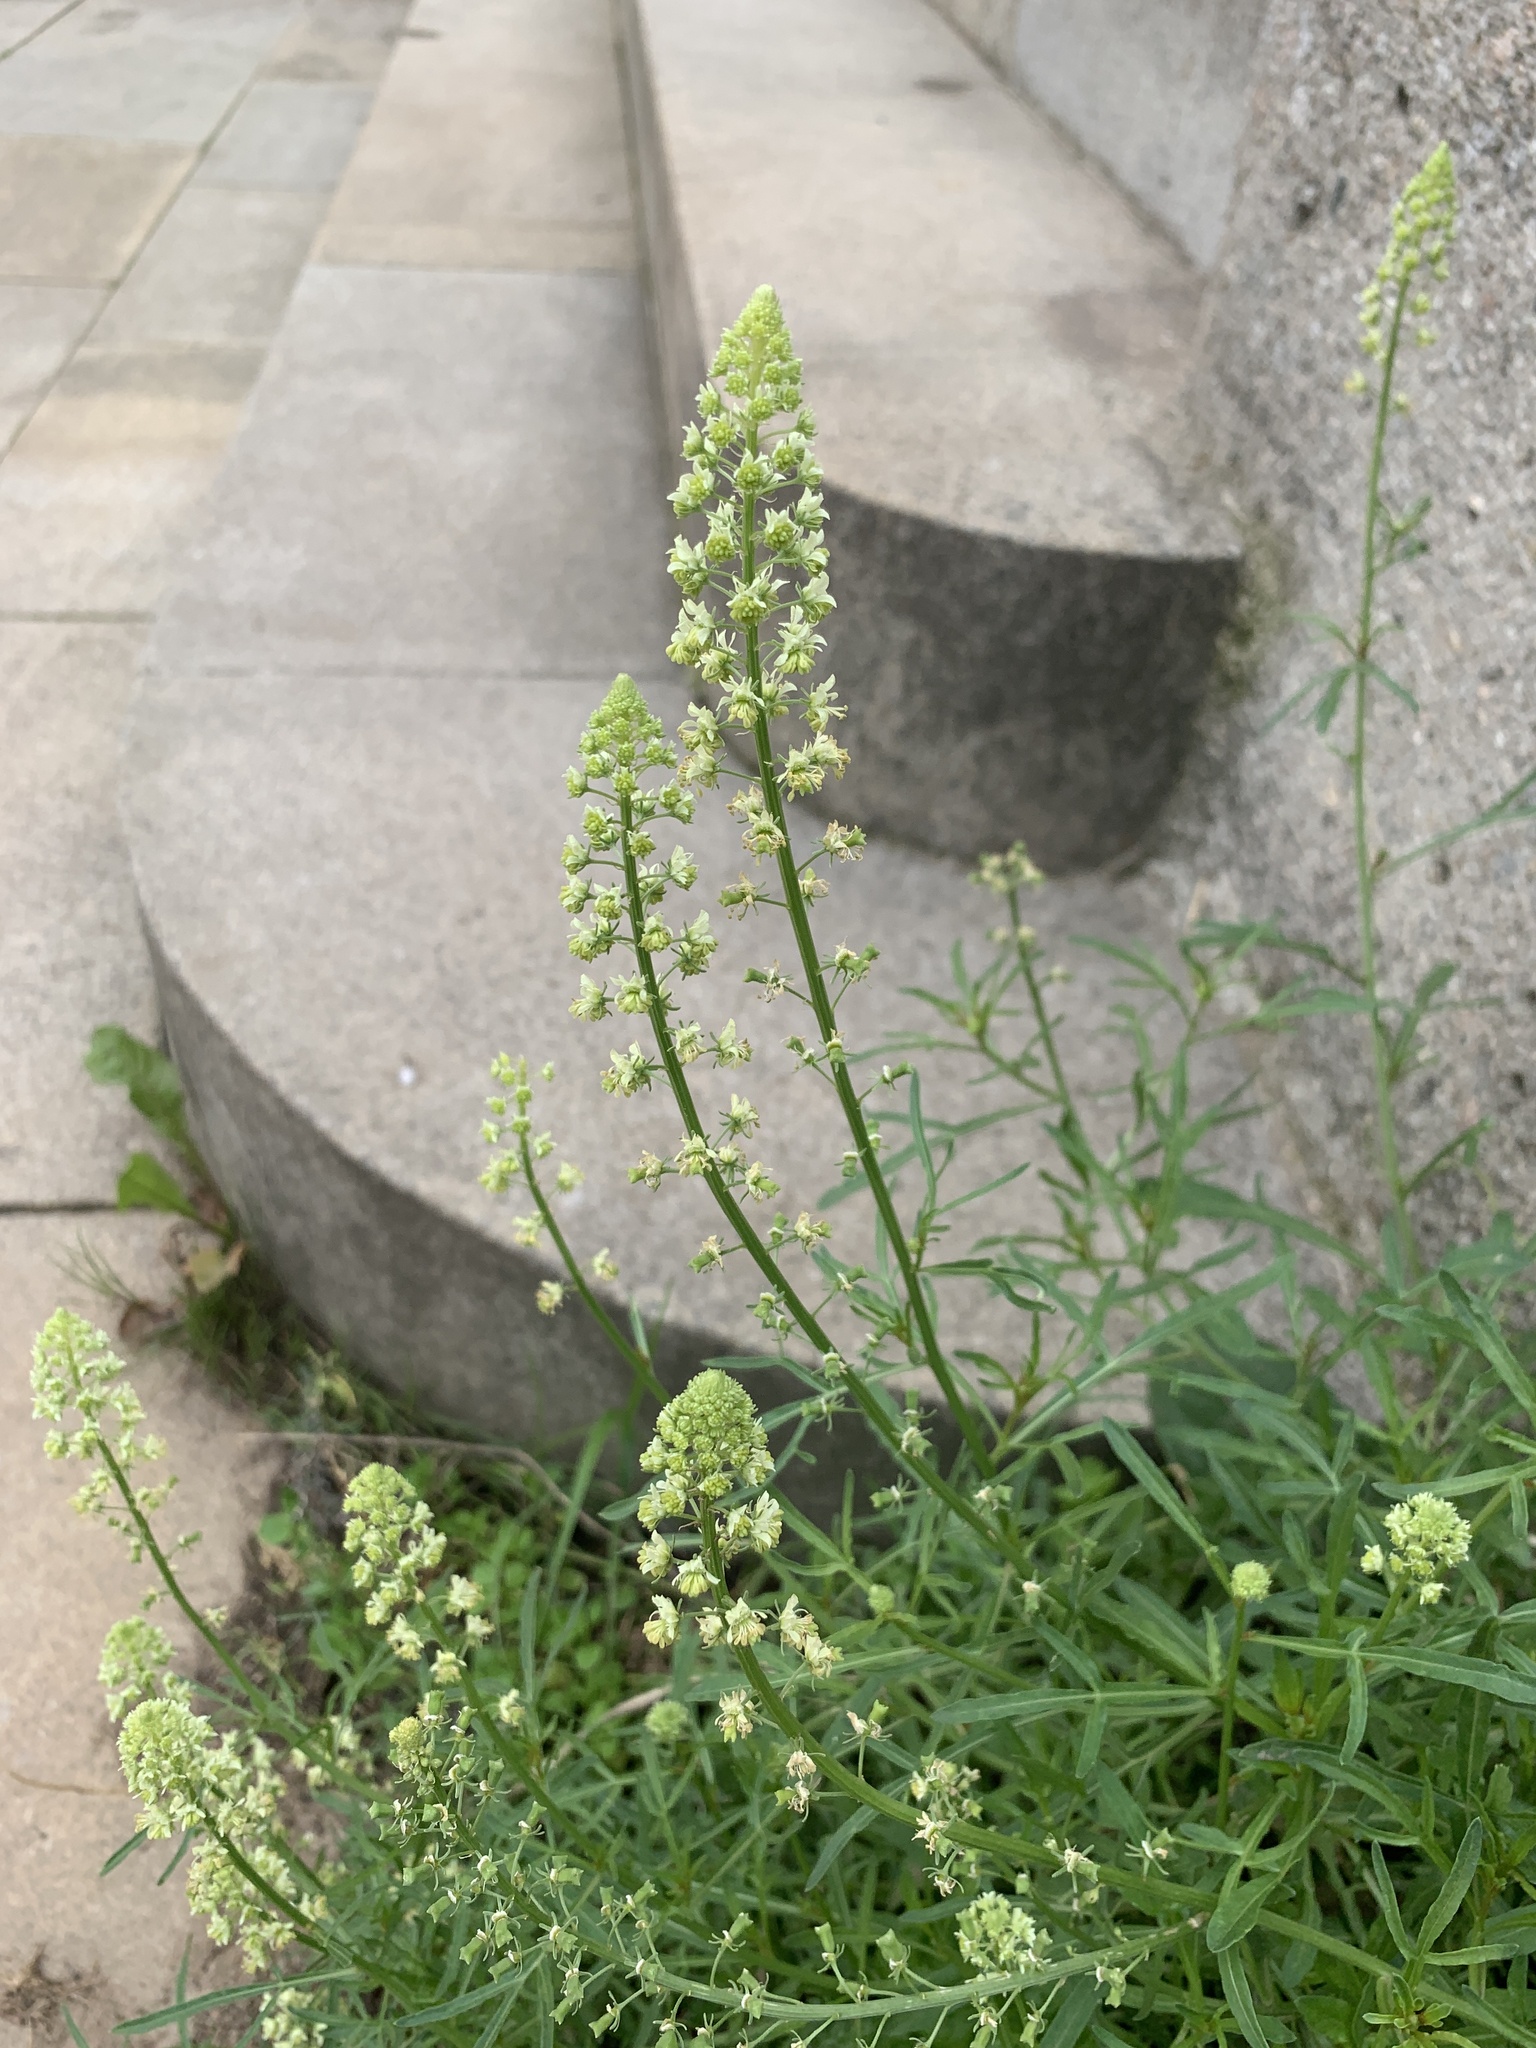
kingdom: Plantae
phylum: Tracheophyta
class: Magnoliopsida
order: Brassicales
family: Resedaceae
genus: Reseda
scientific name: Reseda lutea
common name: Wild mignonette
